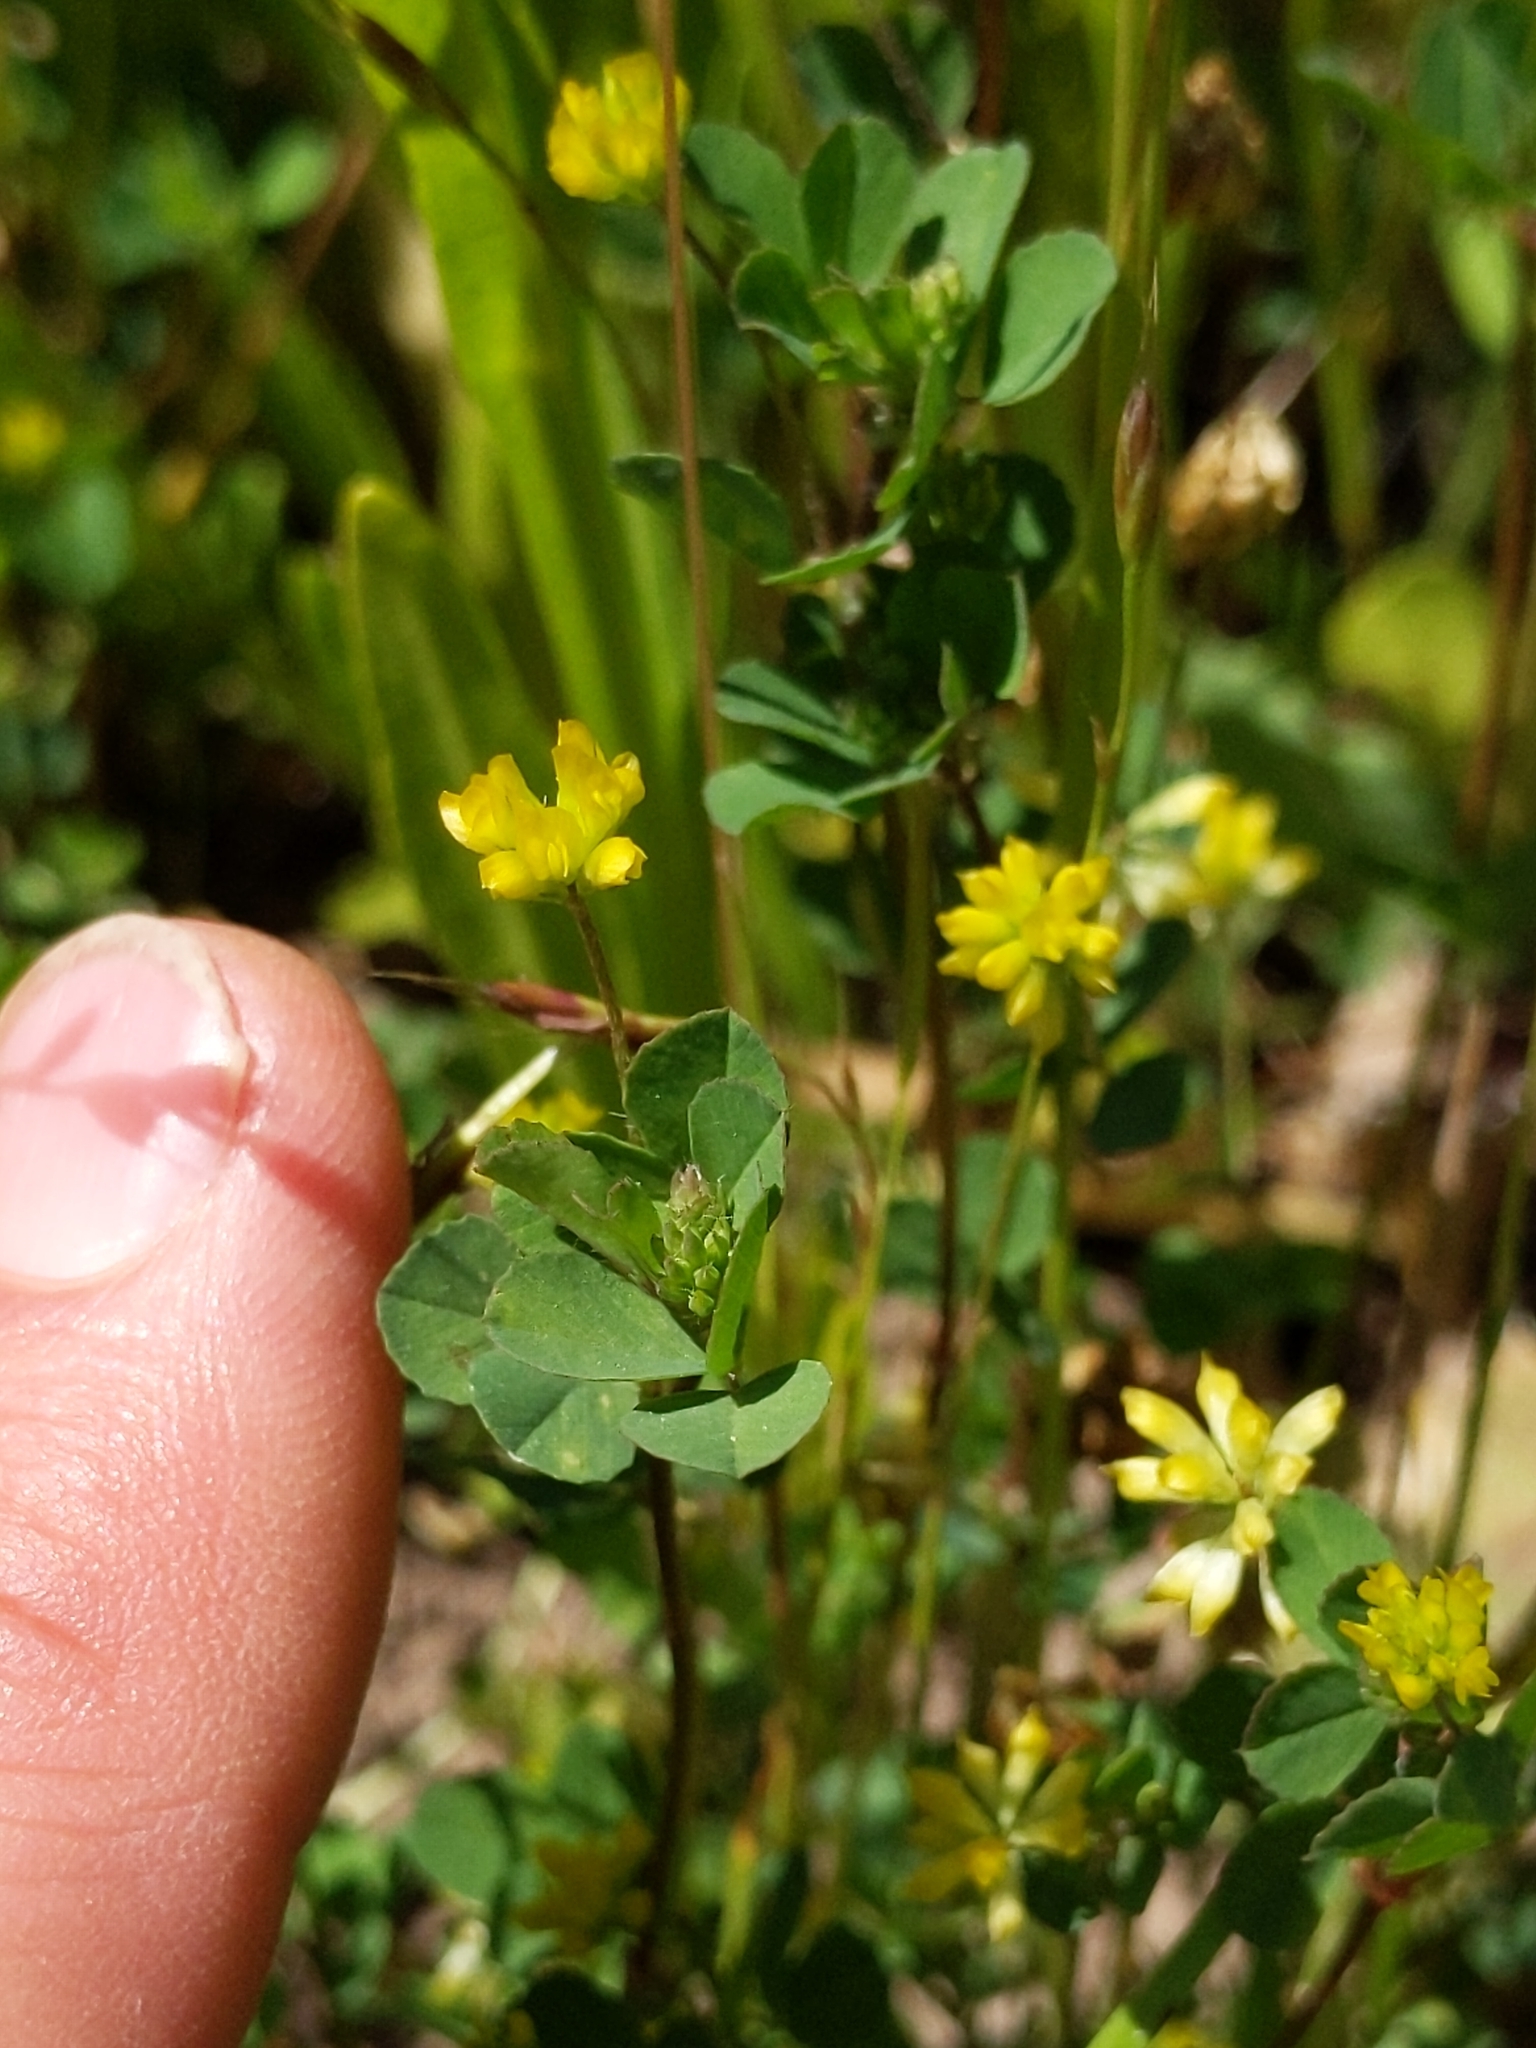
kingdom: Plantae
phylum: Tracheophyta
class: Magnoliopsida
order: Fabales
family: Fabaceae
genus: Trifolium
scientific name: Trifolium dubium
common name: Suckling clover
